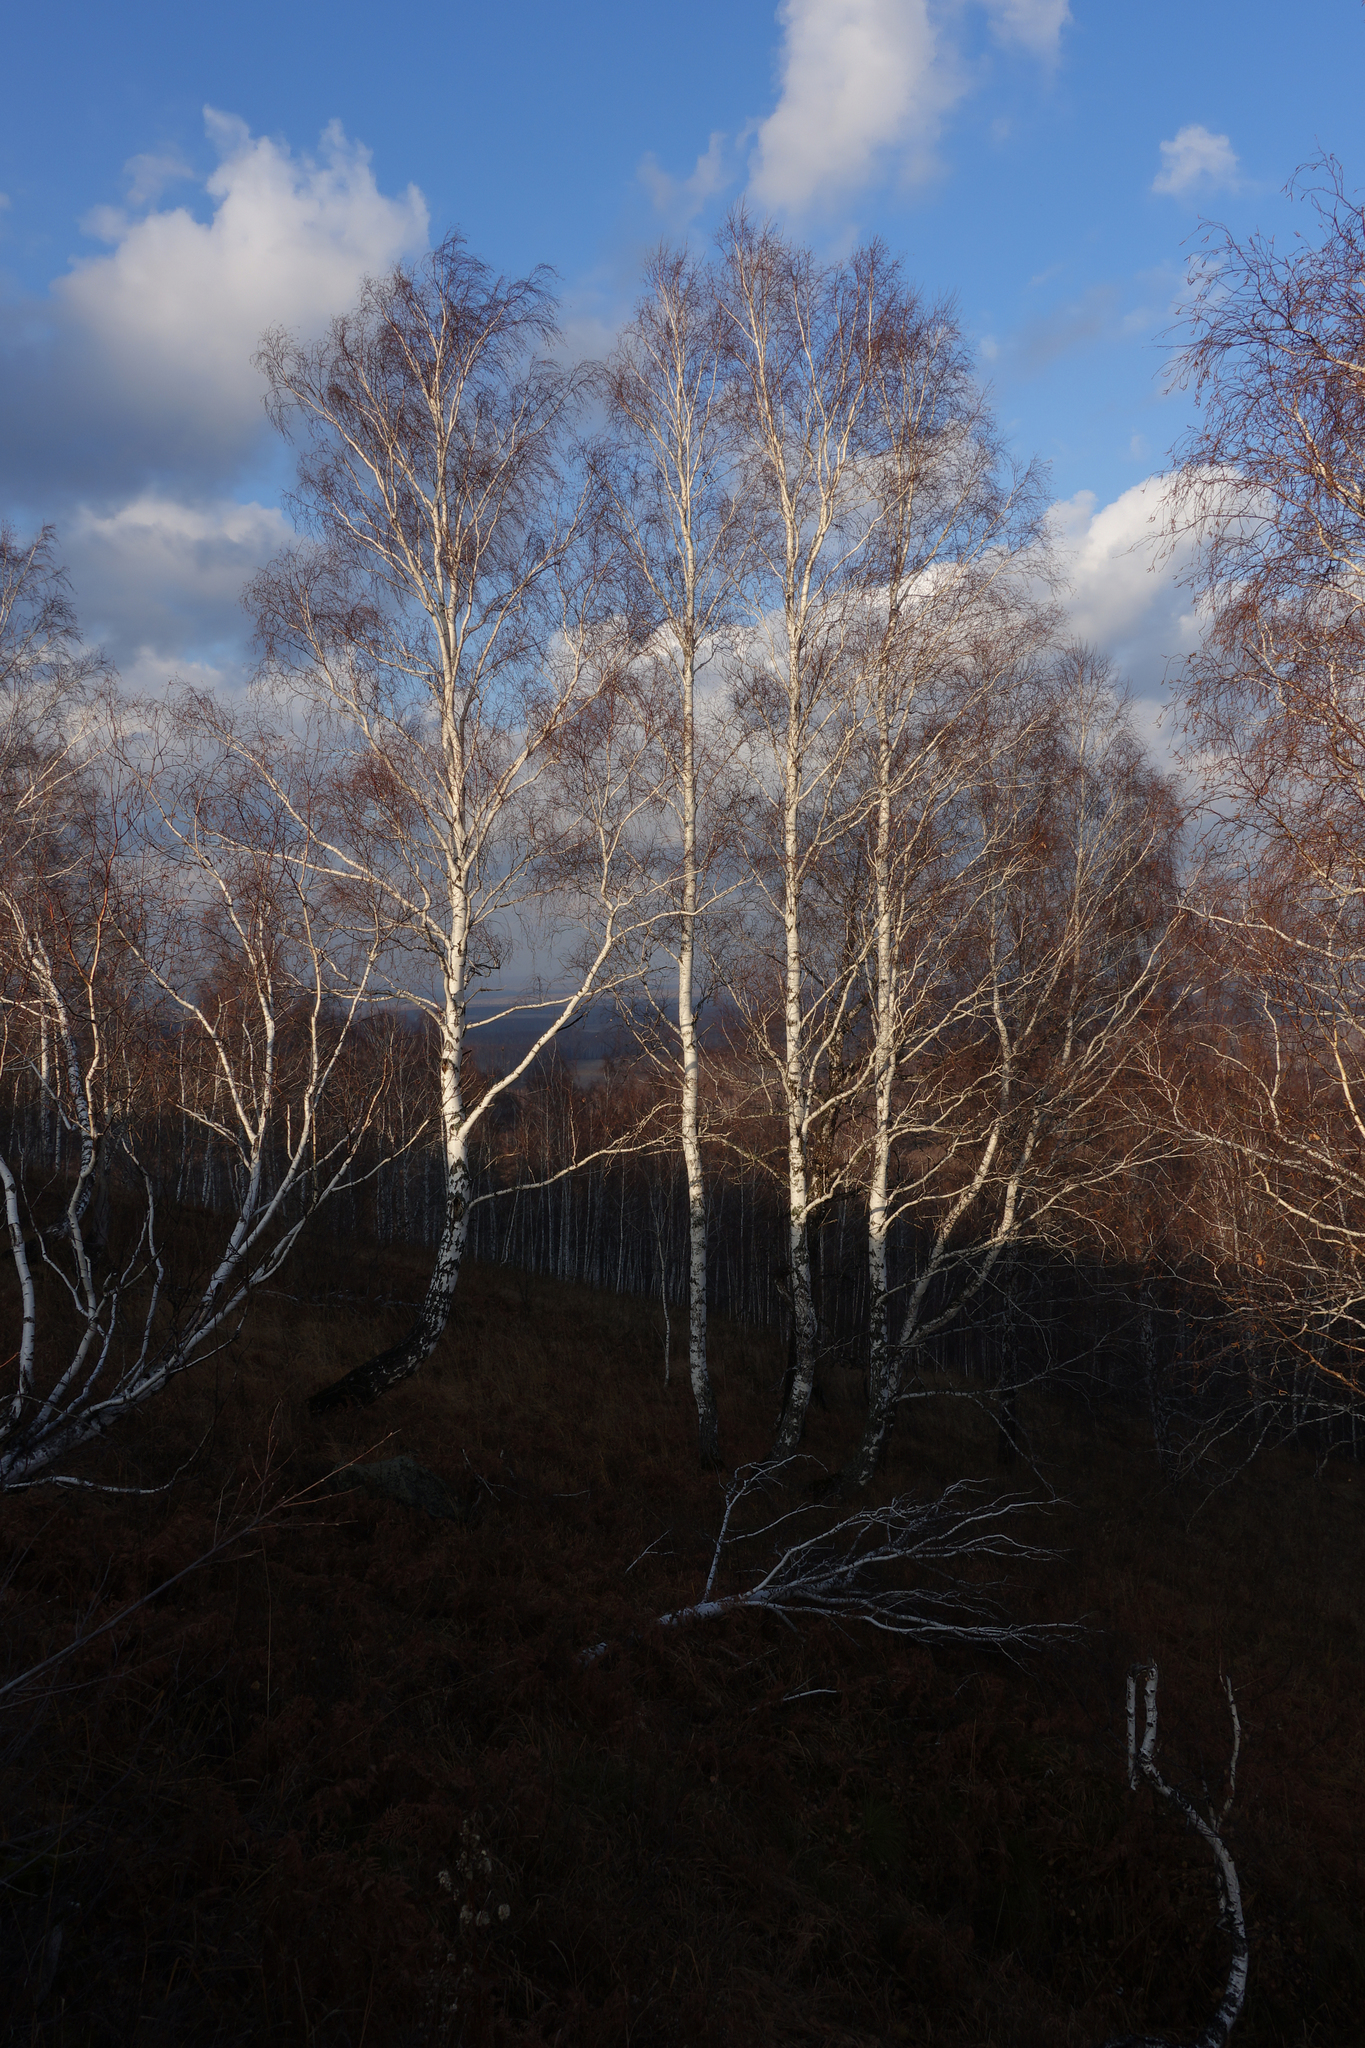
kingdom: Plantae
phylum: Tracheophyta
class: Magnoliopsida
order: Fagales
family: Betulaceae
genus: Betula
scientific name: Betula pendula
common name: Silver birch
